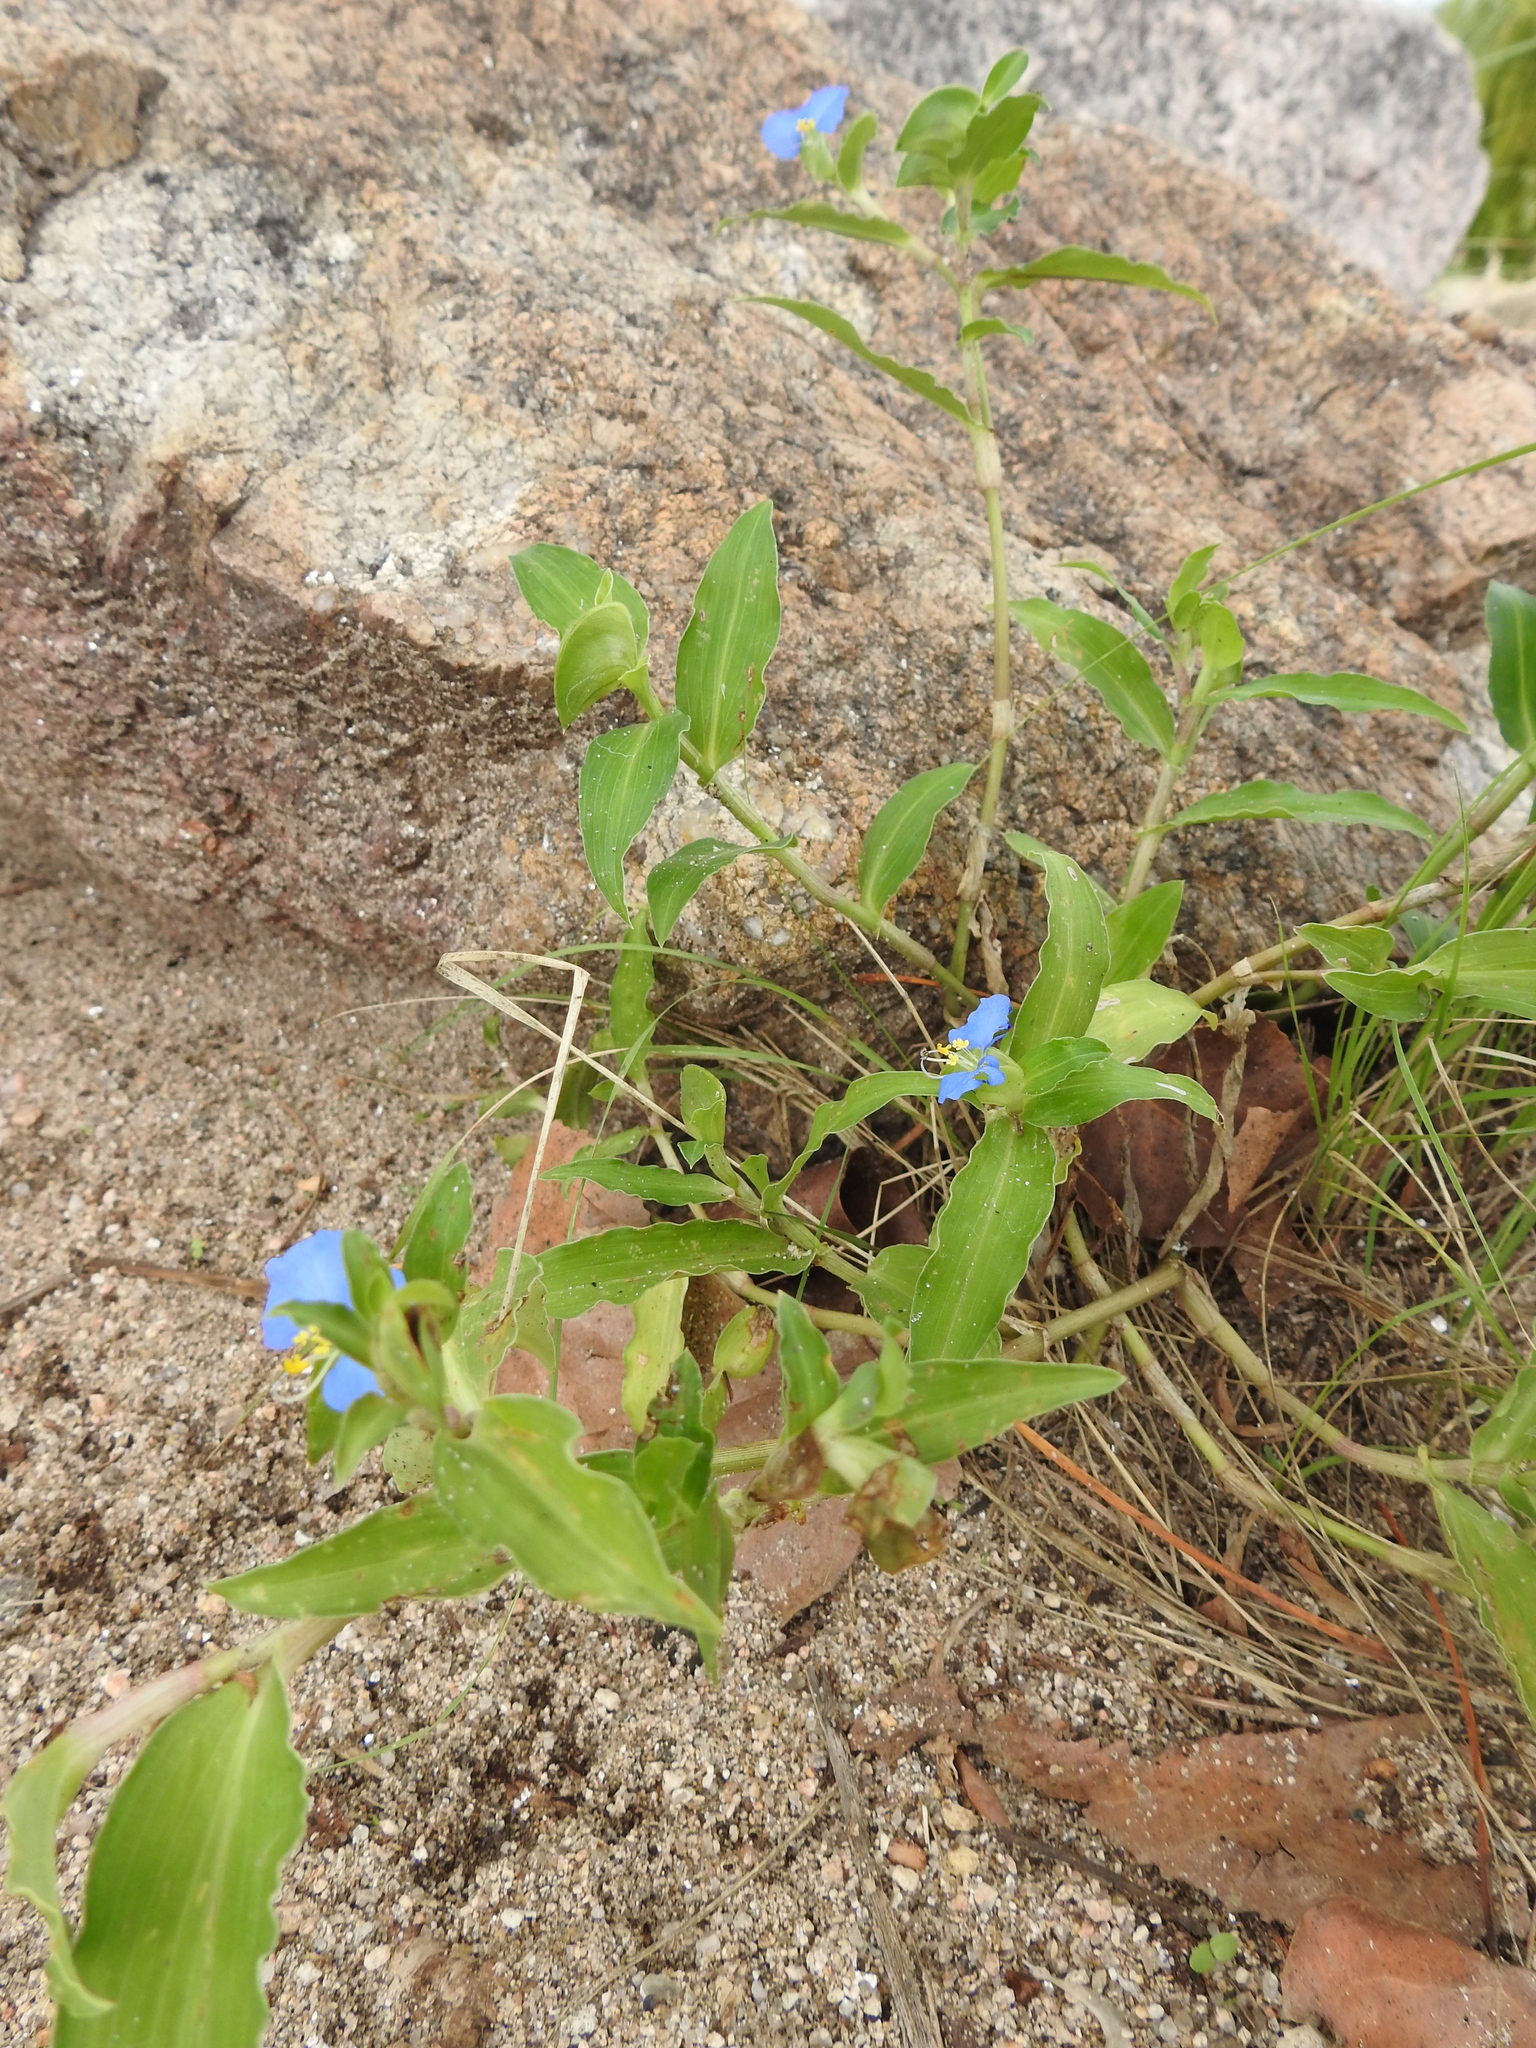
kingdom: Plantae
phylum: Tracheophyta
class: Liliopsida
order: Commelinales
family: Commelinaceae
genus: Commelina
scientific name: Commelina erecta
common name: Blousel blommetjie
